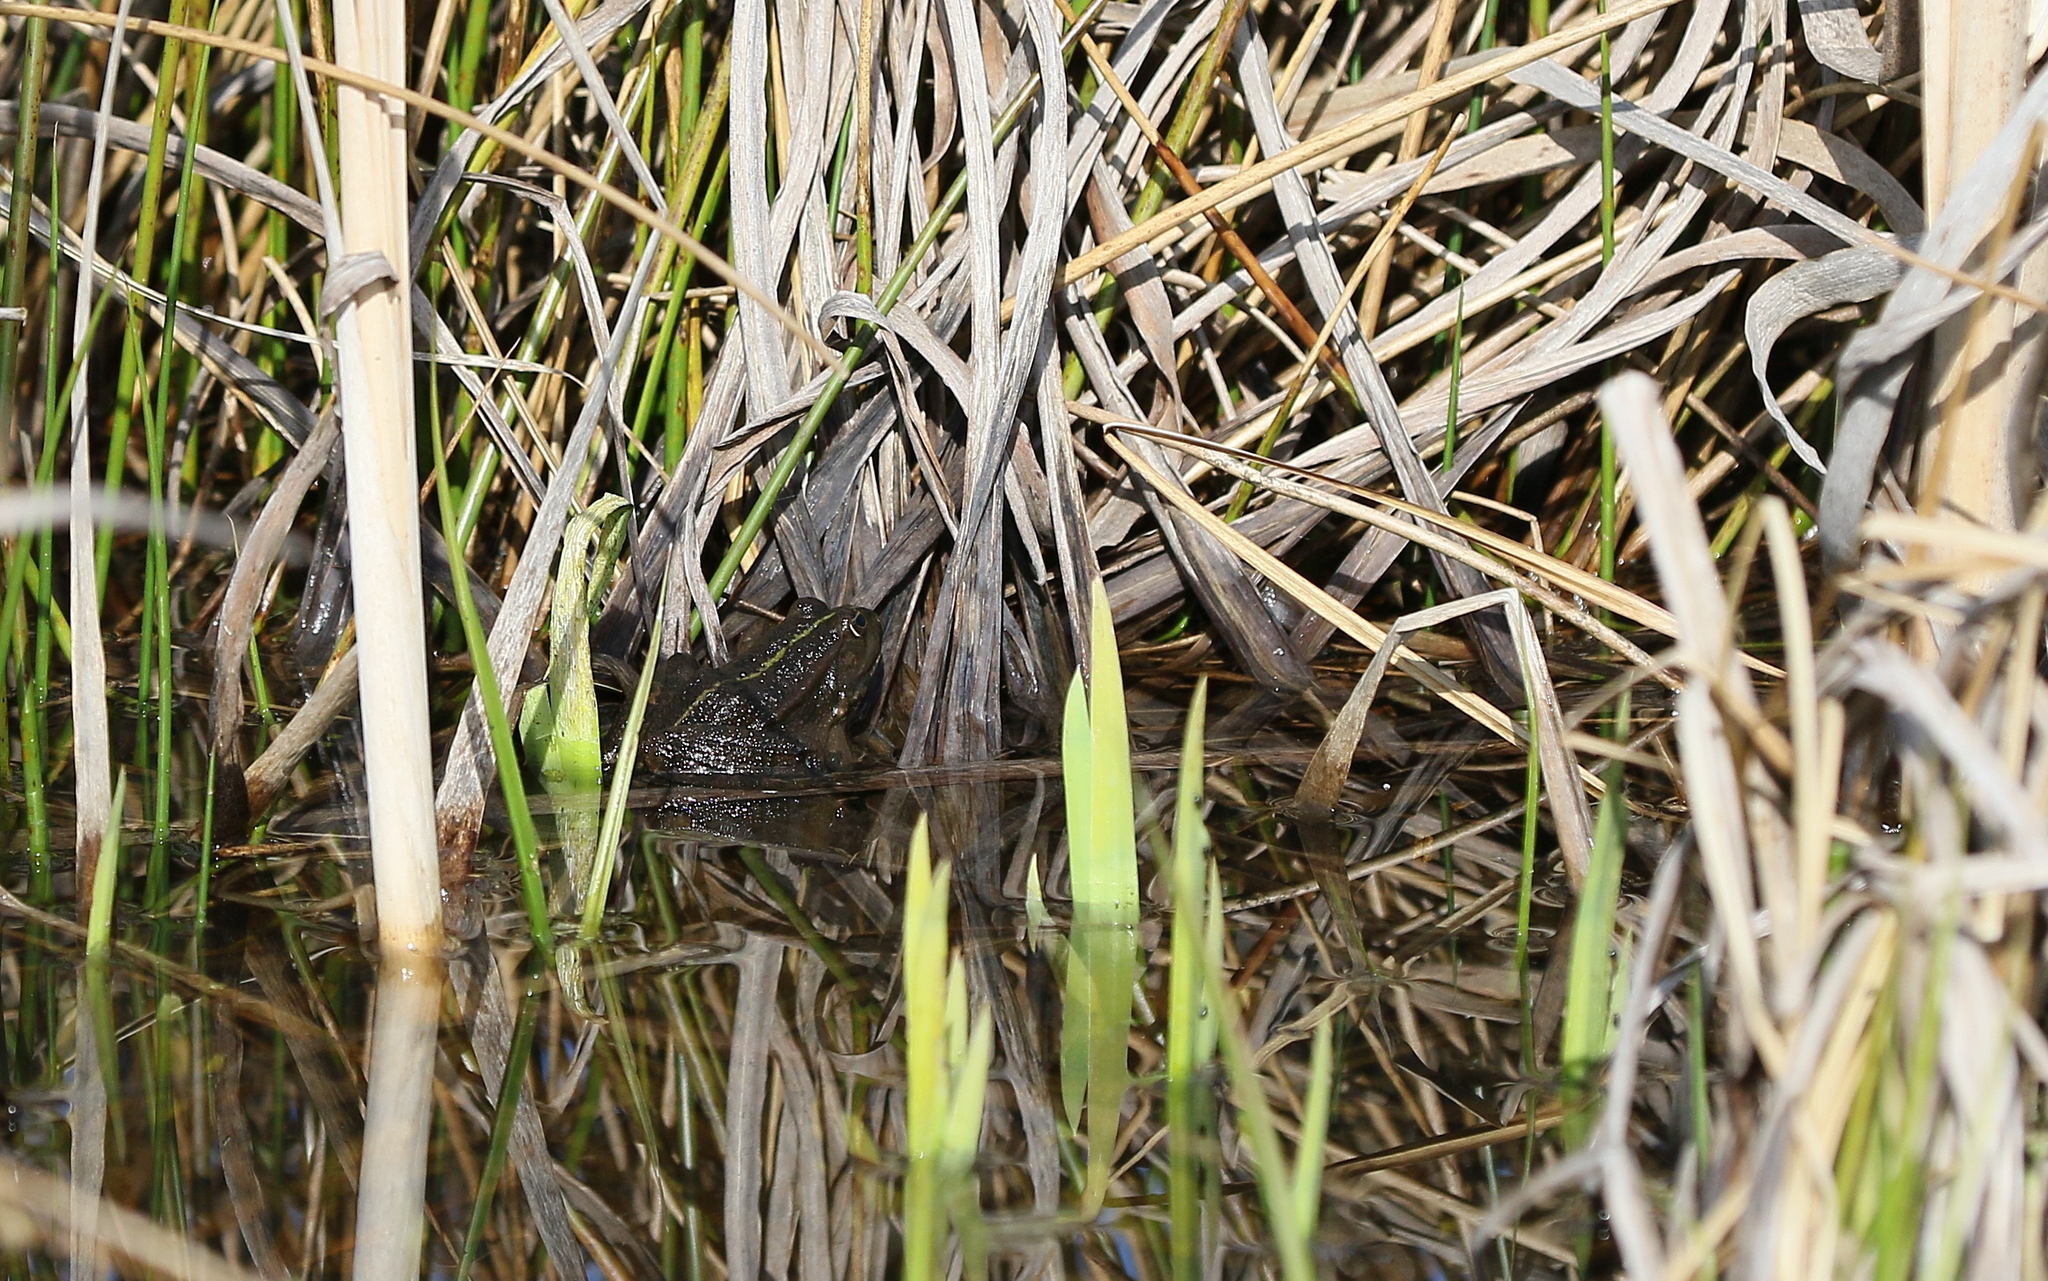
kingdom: Animalia
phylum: Chordata
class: Amphibia
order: Anura
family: Ranidae
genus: Pelophylax
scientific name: Pelophylax
